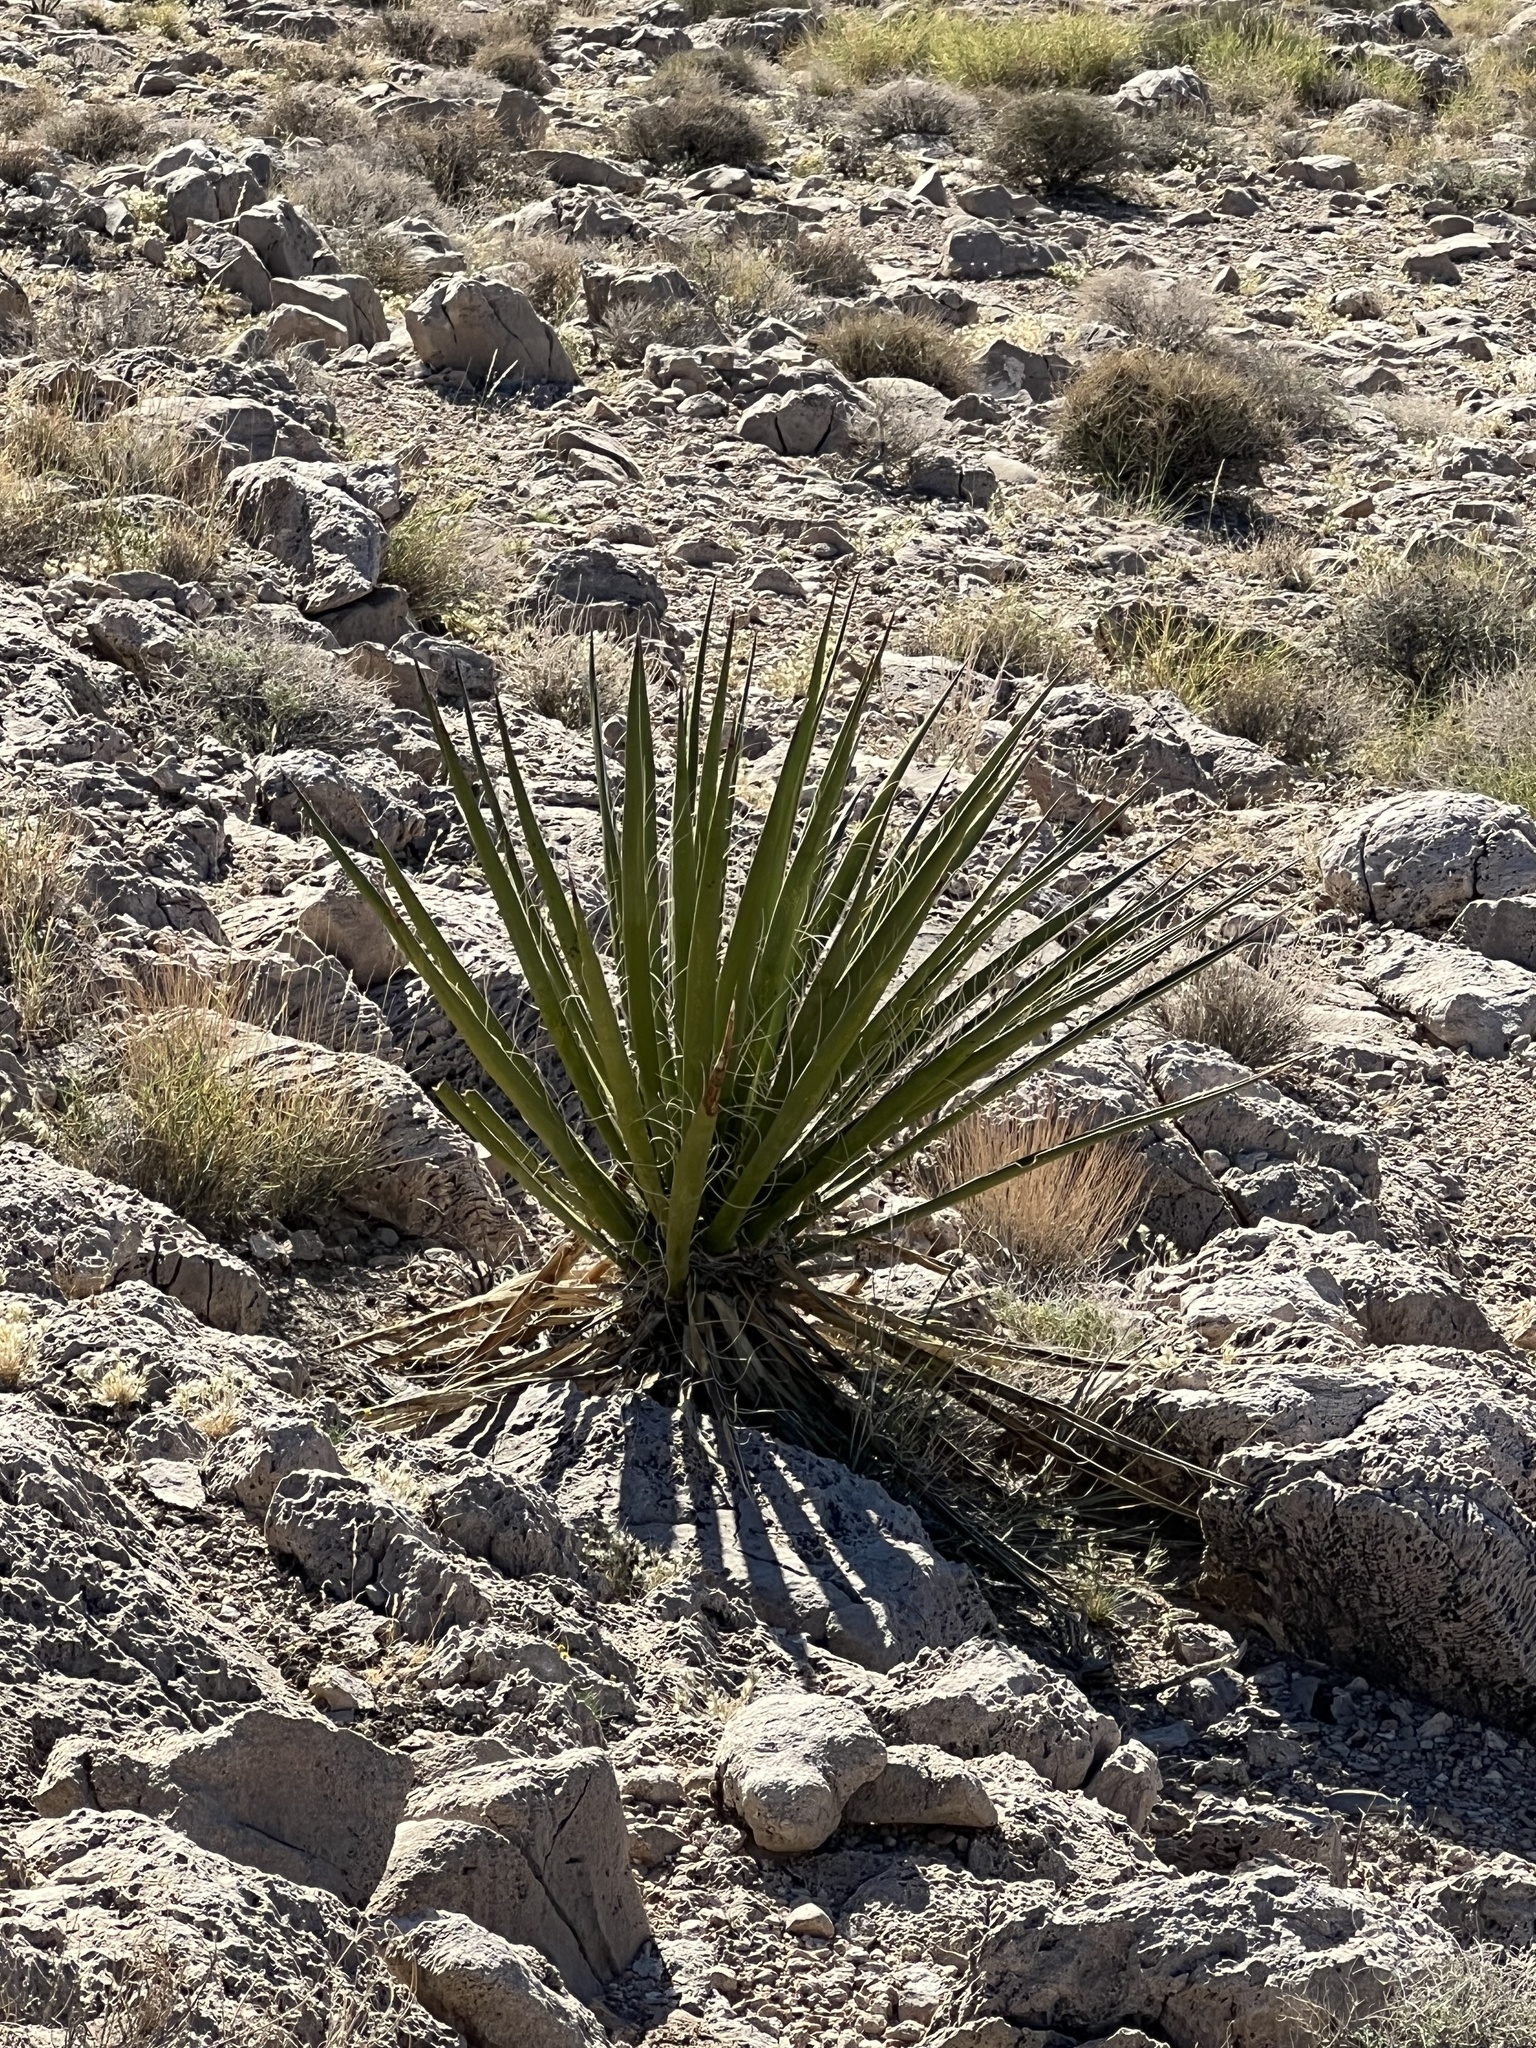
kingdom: Plantae
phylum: Tracheophyta
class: Liliopsida
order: Asparagales
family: Asparagaceae
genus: Yucca
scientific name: Yucca schidigera
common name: Mojave yucca
